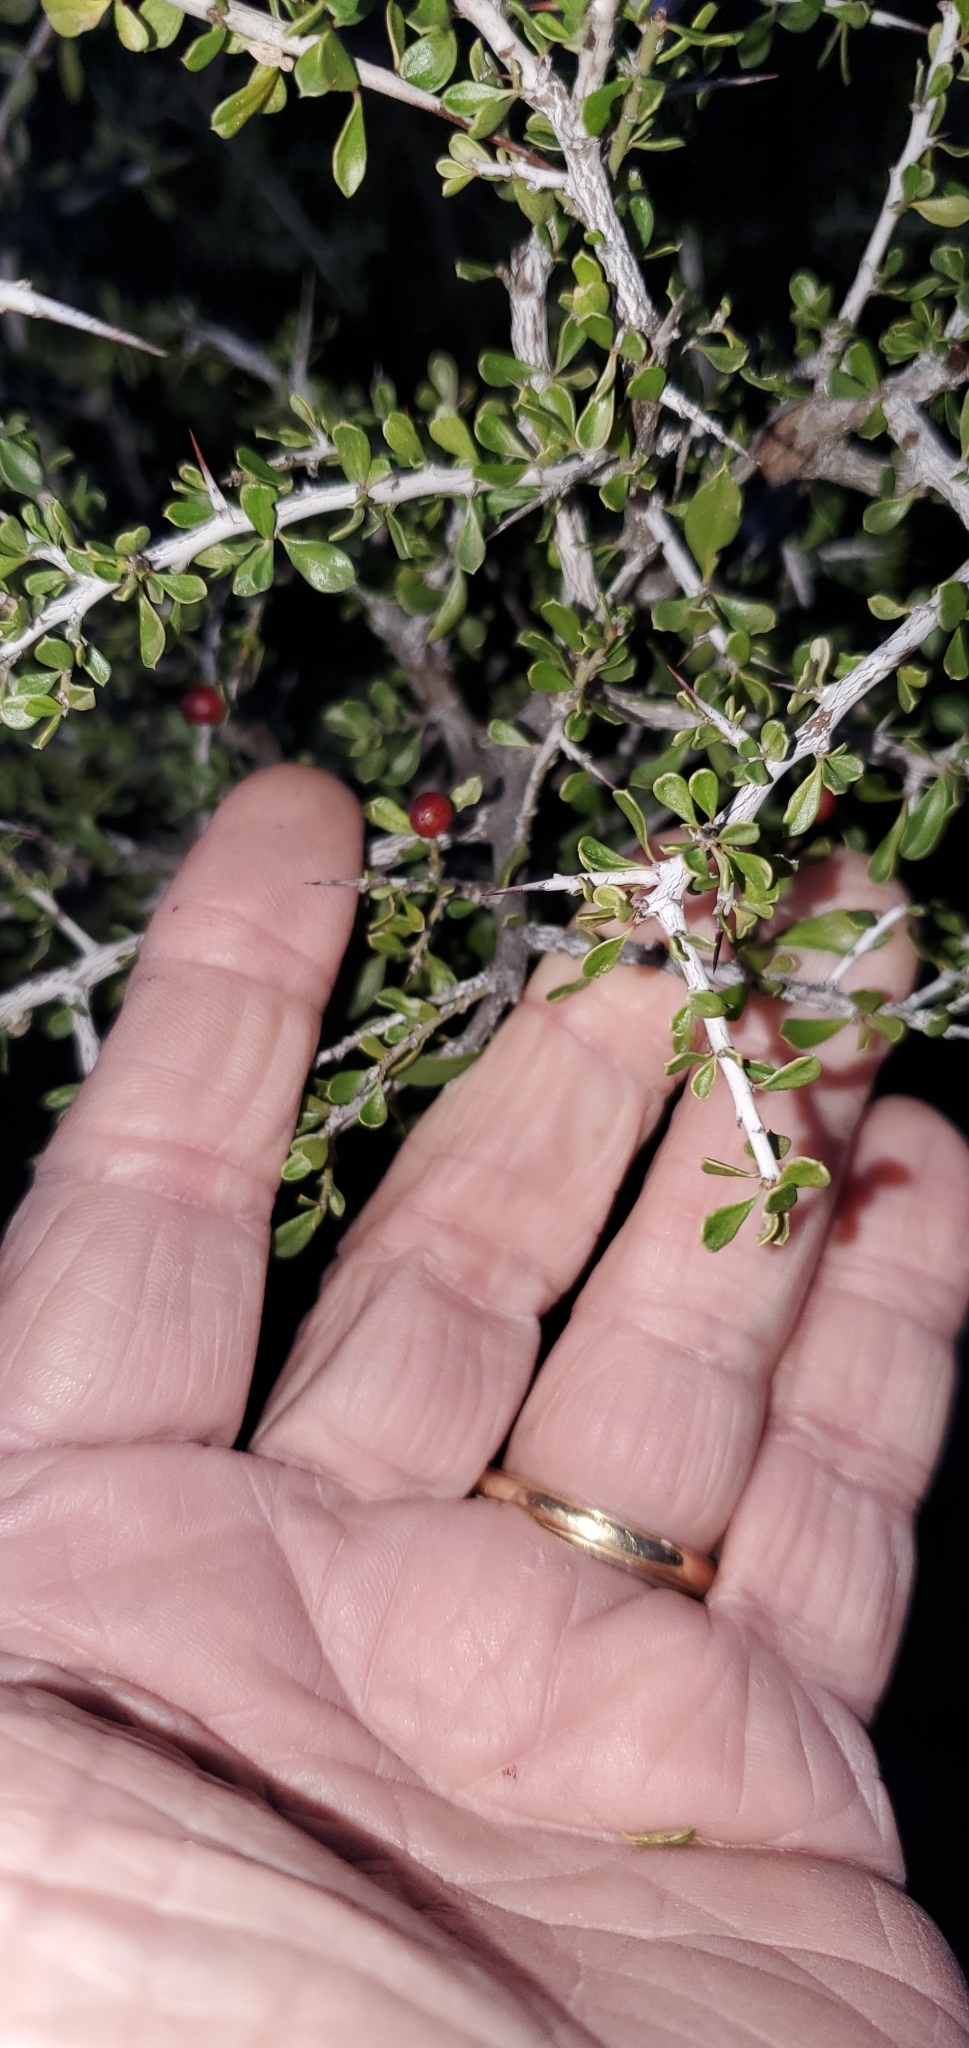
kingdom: Plantae
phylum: Tracheophyta
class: Magnoliopsida
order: Rosales
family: Rhamnaceae
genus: Condalia
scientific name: Condalia viridis
